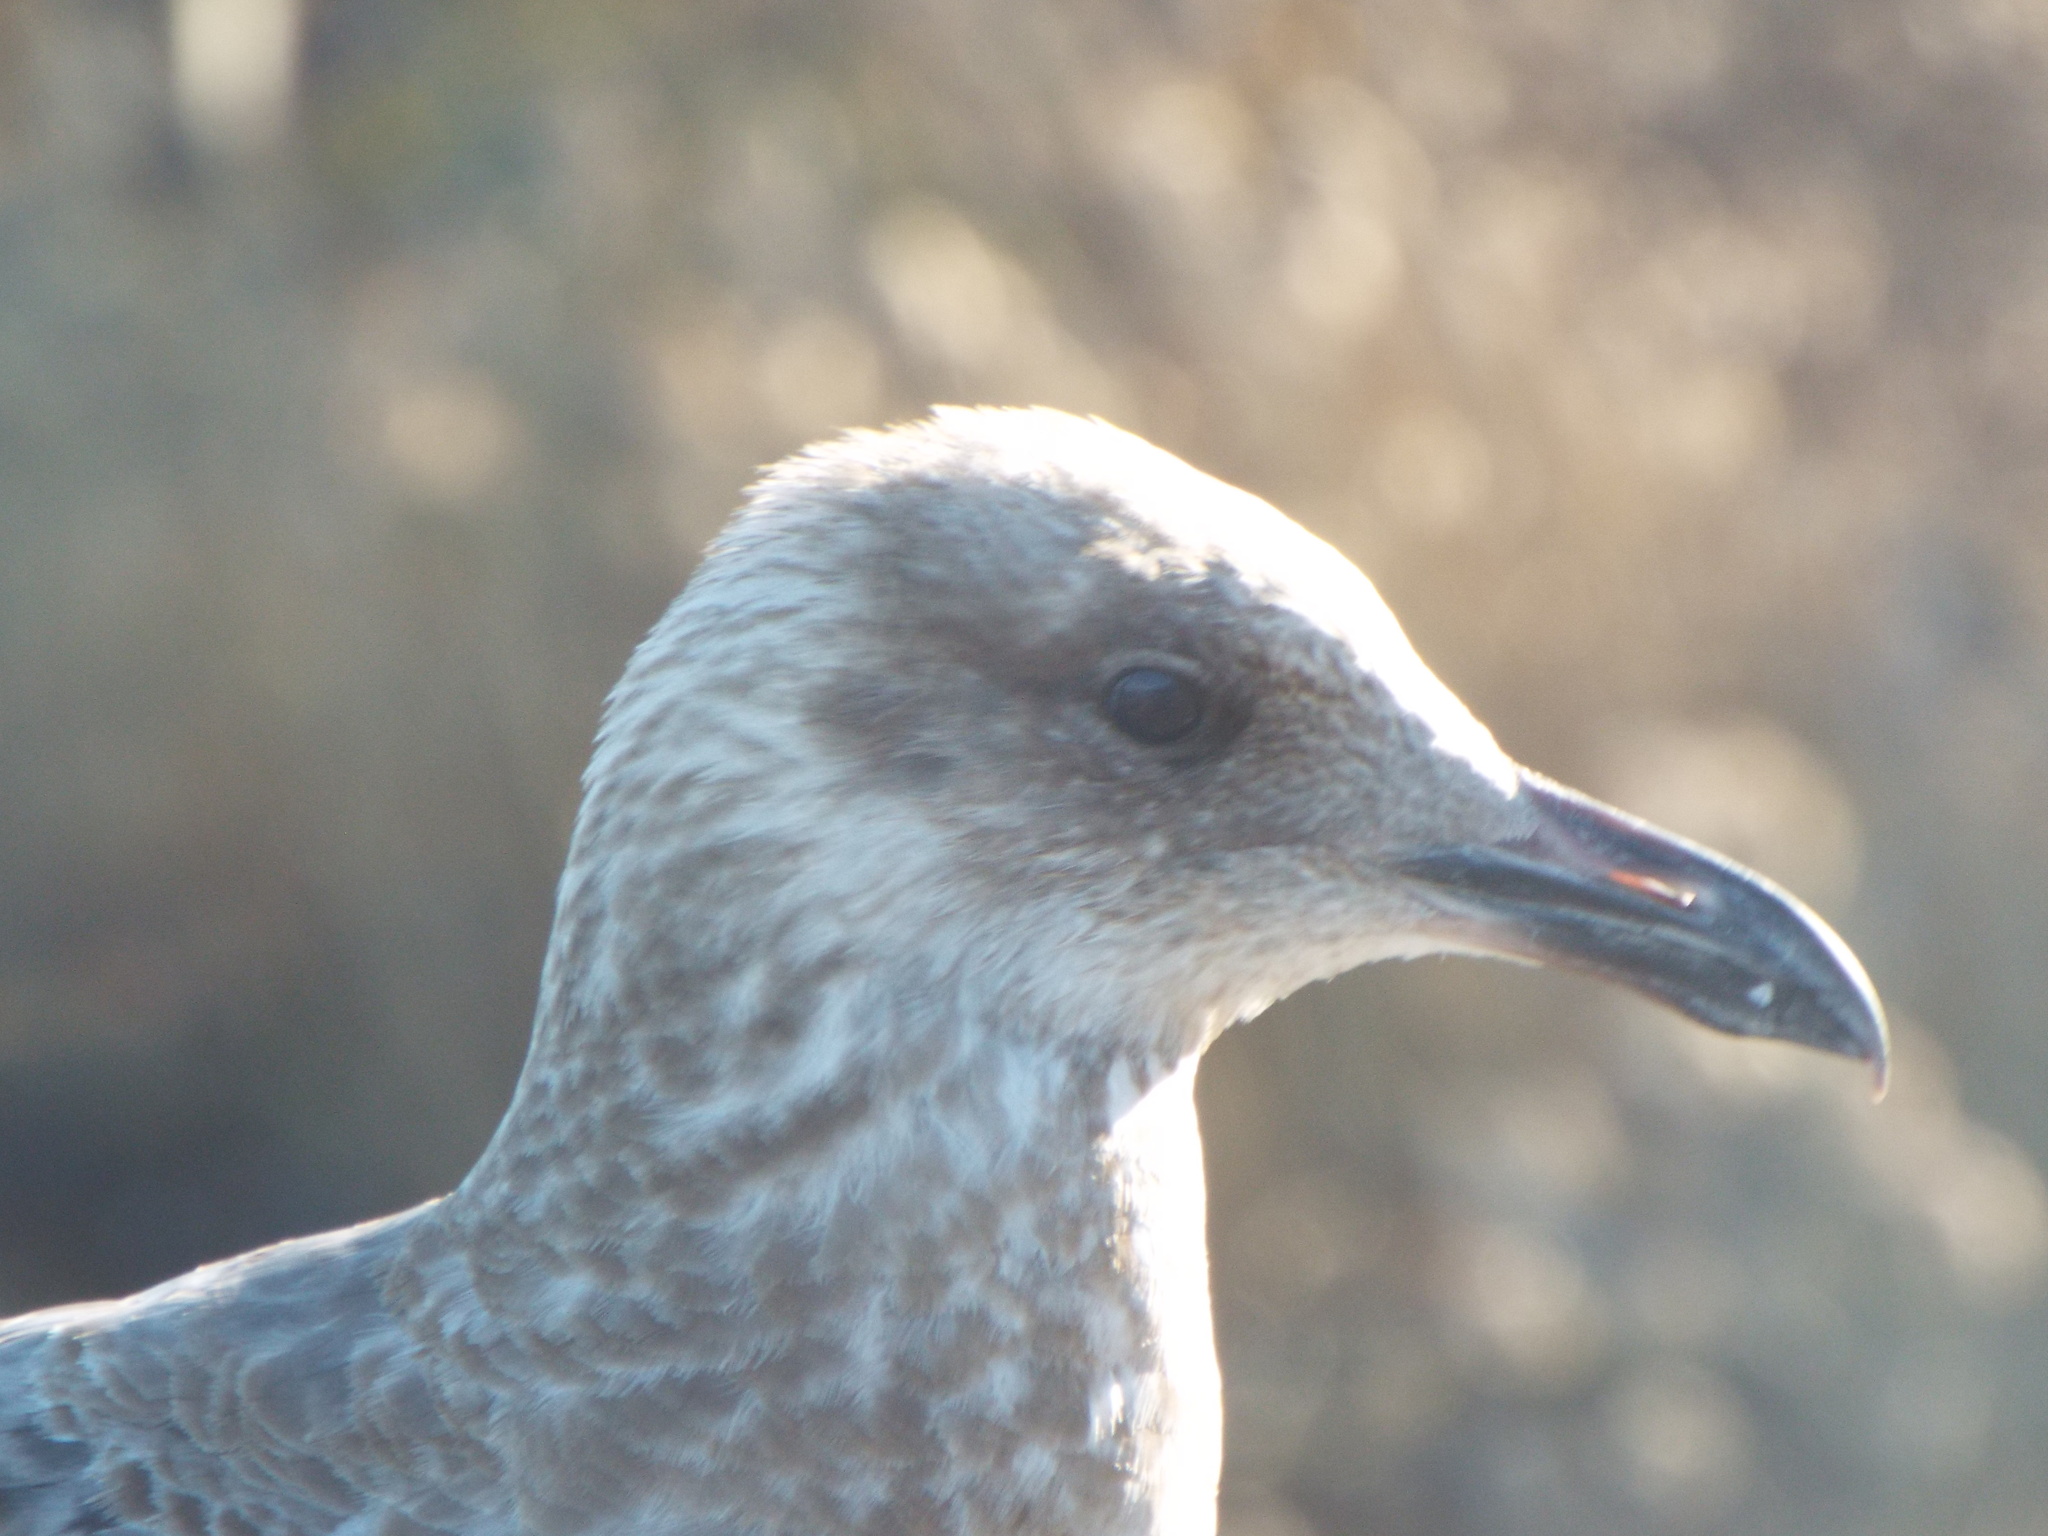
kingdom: Animalia
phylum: Chordata
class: Aves
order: Charadriiformes
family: Laridae
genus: Larus
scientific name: Larus argentatus
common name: Herring gull
